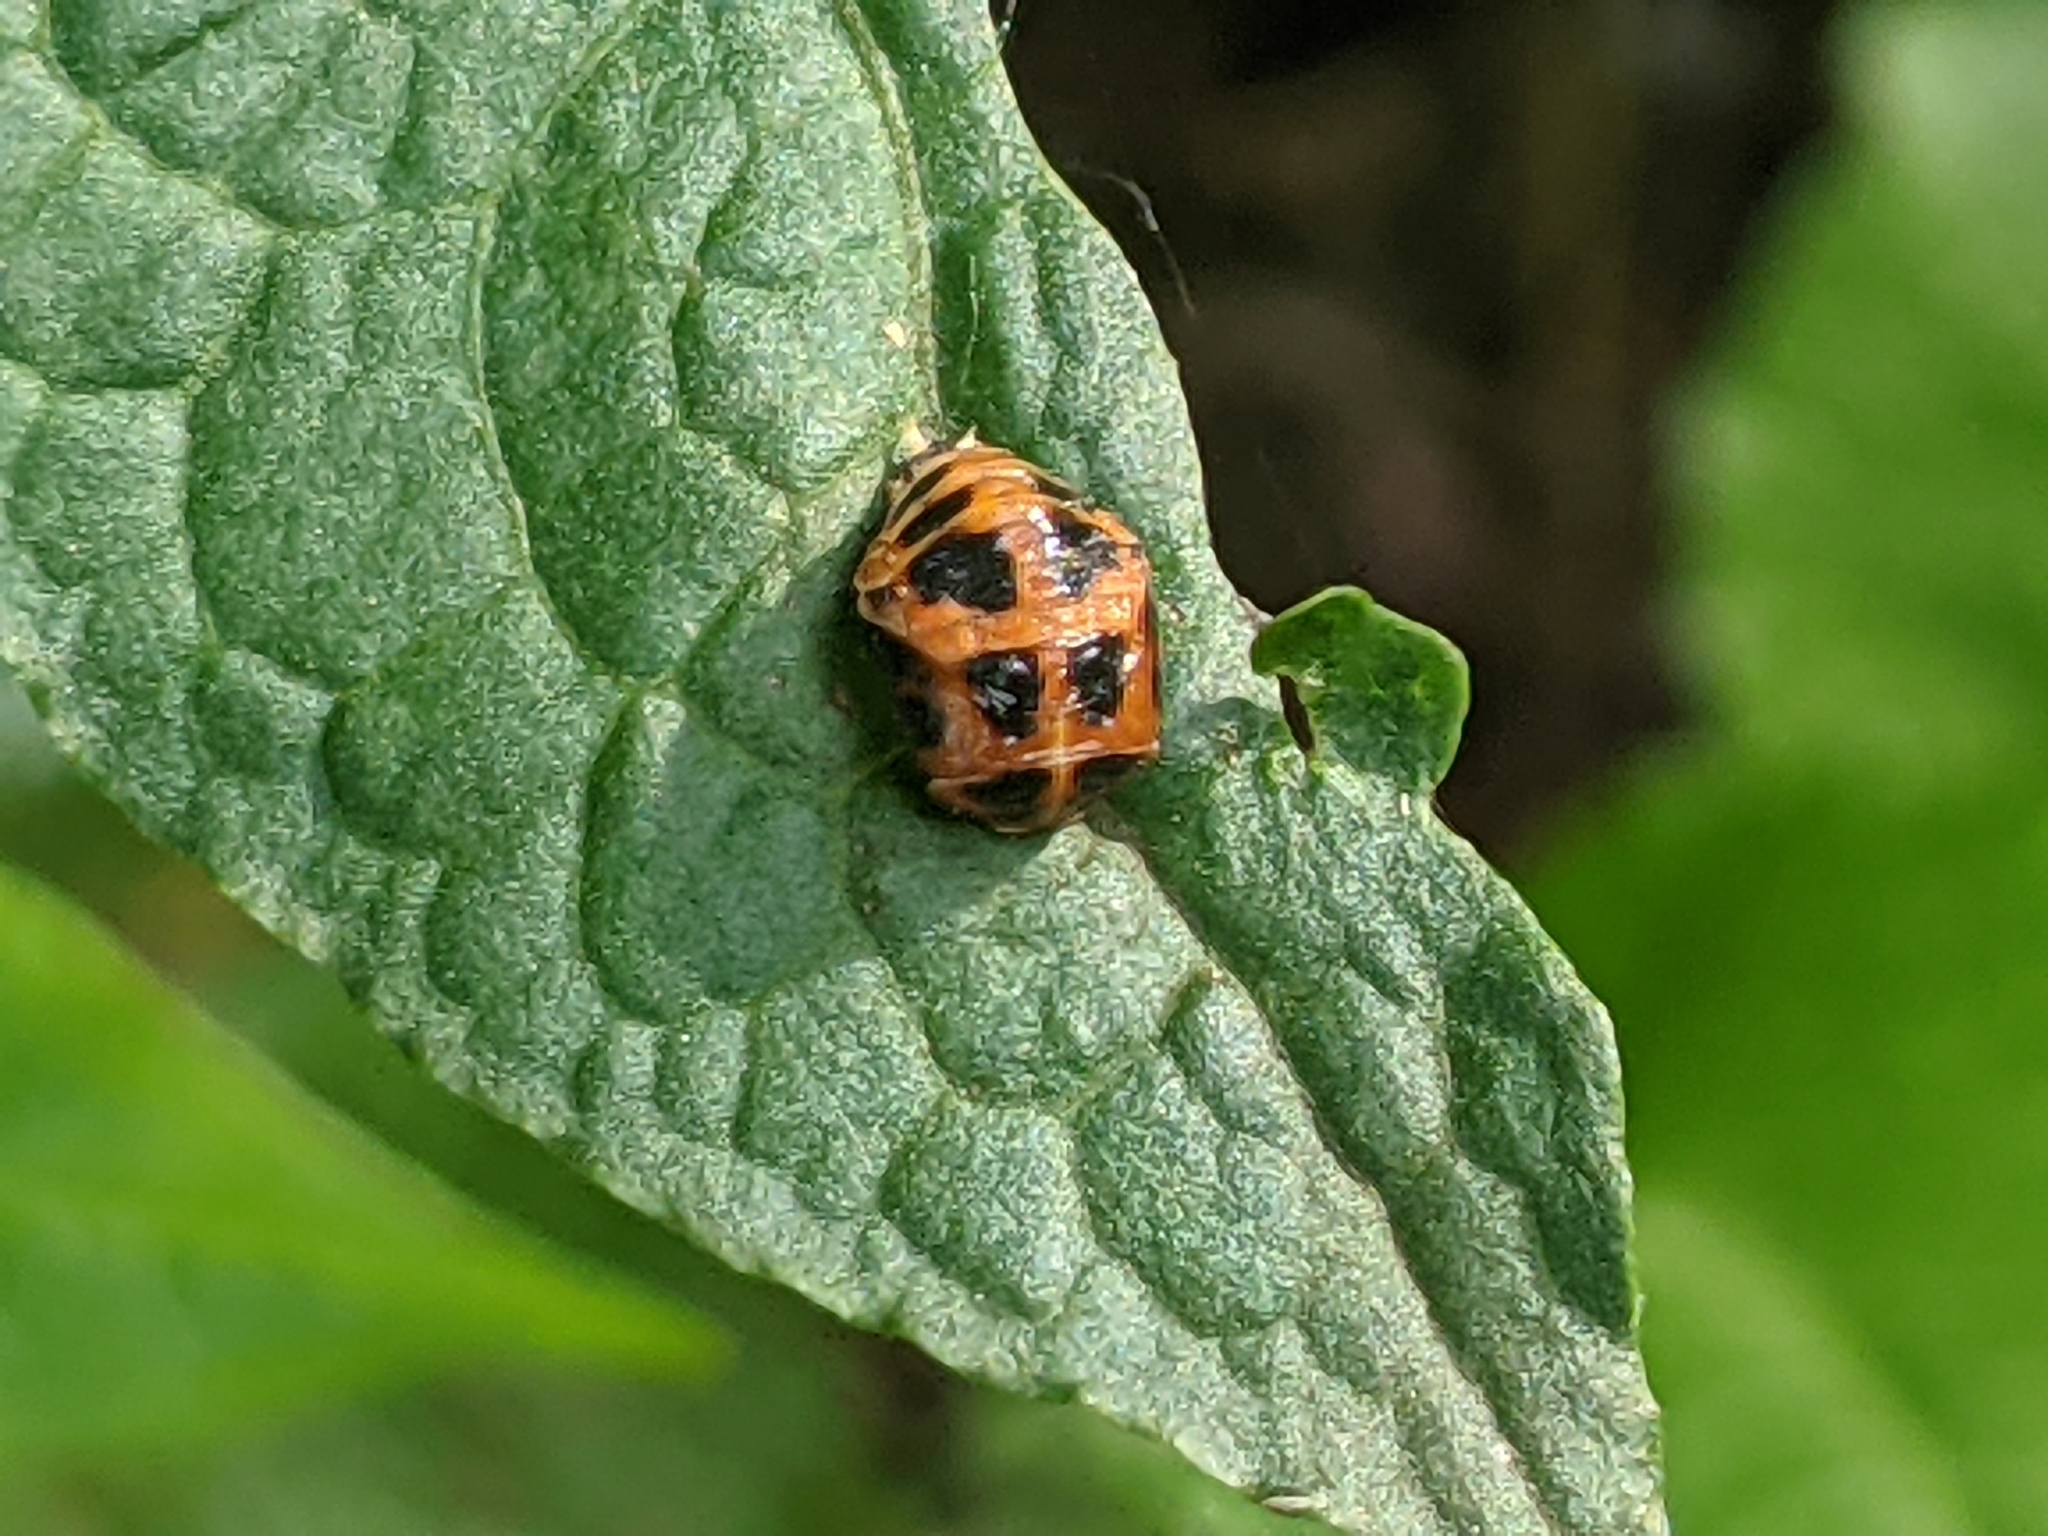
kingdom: Animalia
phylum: Arthropoda
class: Insecta
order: Coleoptera
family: Coccinellidae
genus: Harmonia
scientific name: Harmonia axyridis
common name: Harlequin ladybird
